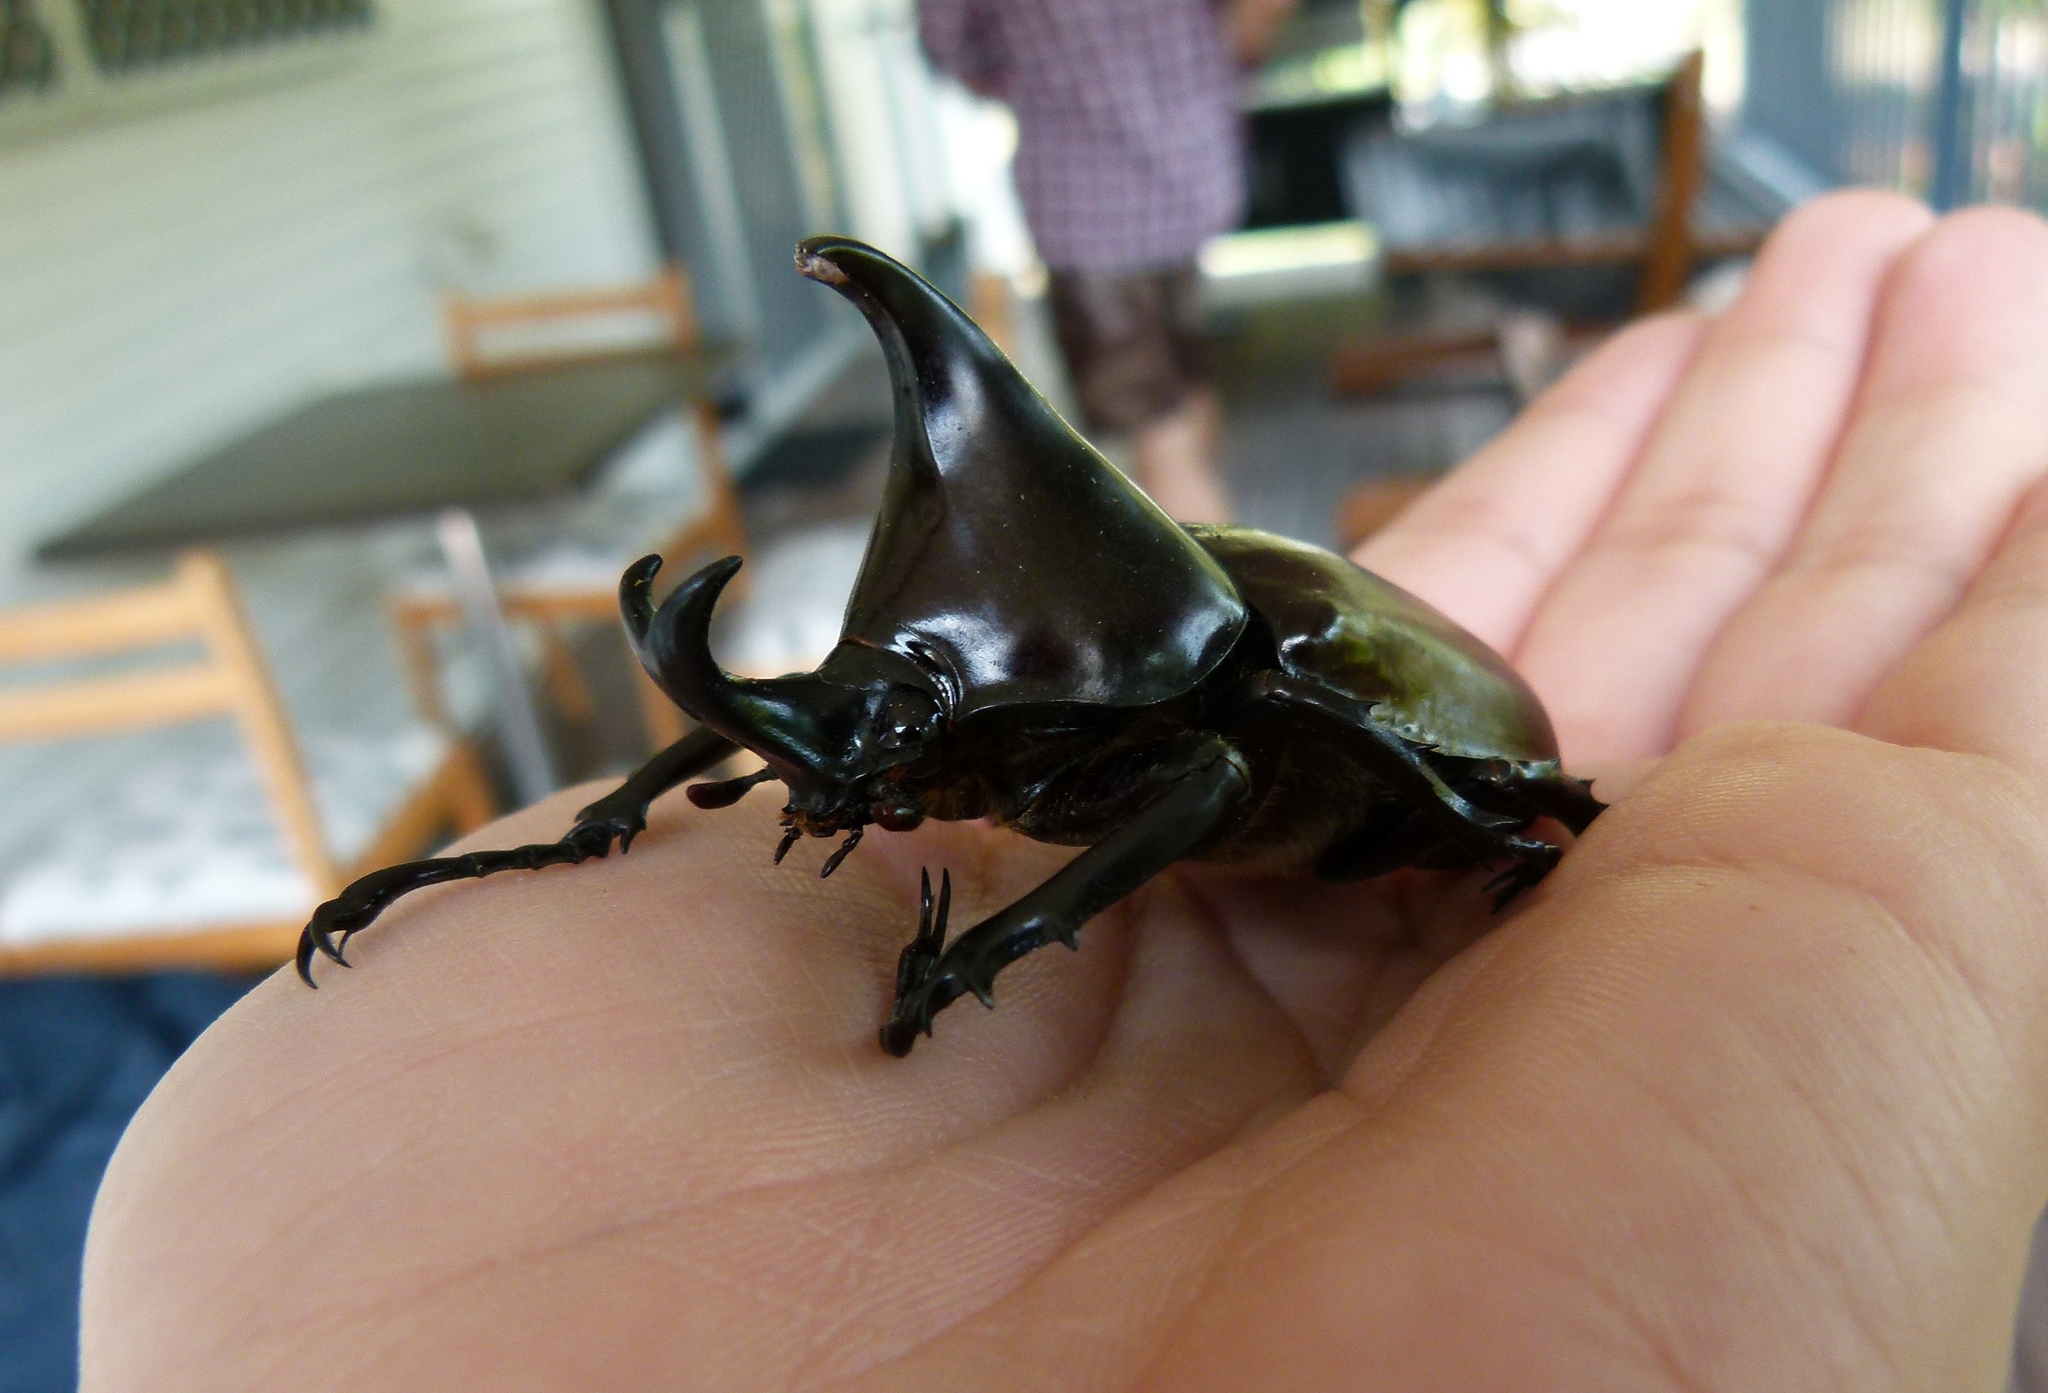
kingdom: Animalia
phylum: Arthropoda
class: Insecta
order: Coleoptera
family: Scarabaeidae
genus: Xylotrupes
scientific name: Xylotrupes australicus
